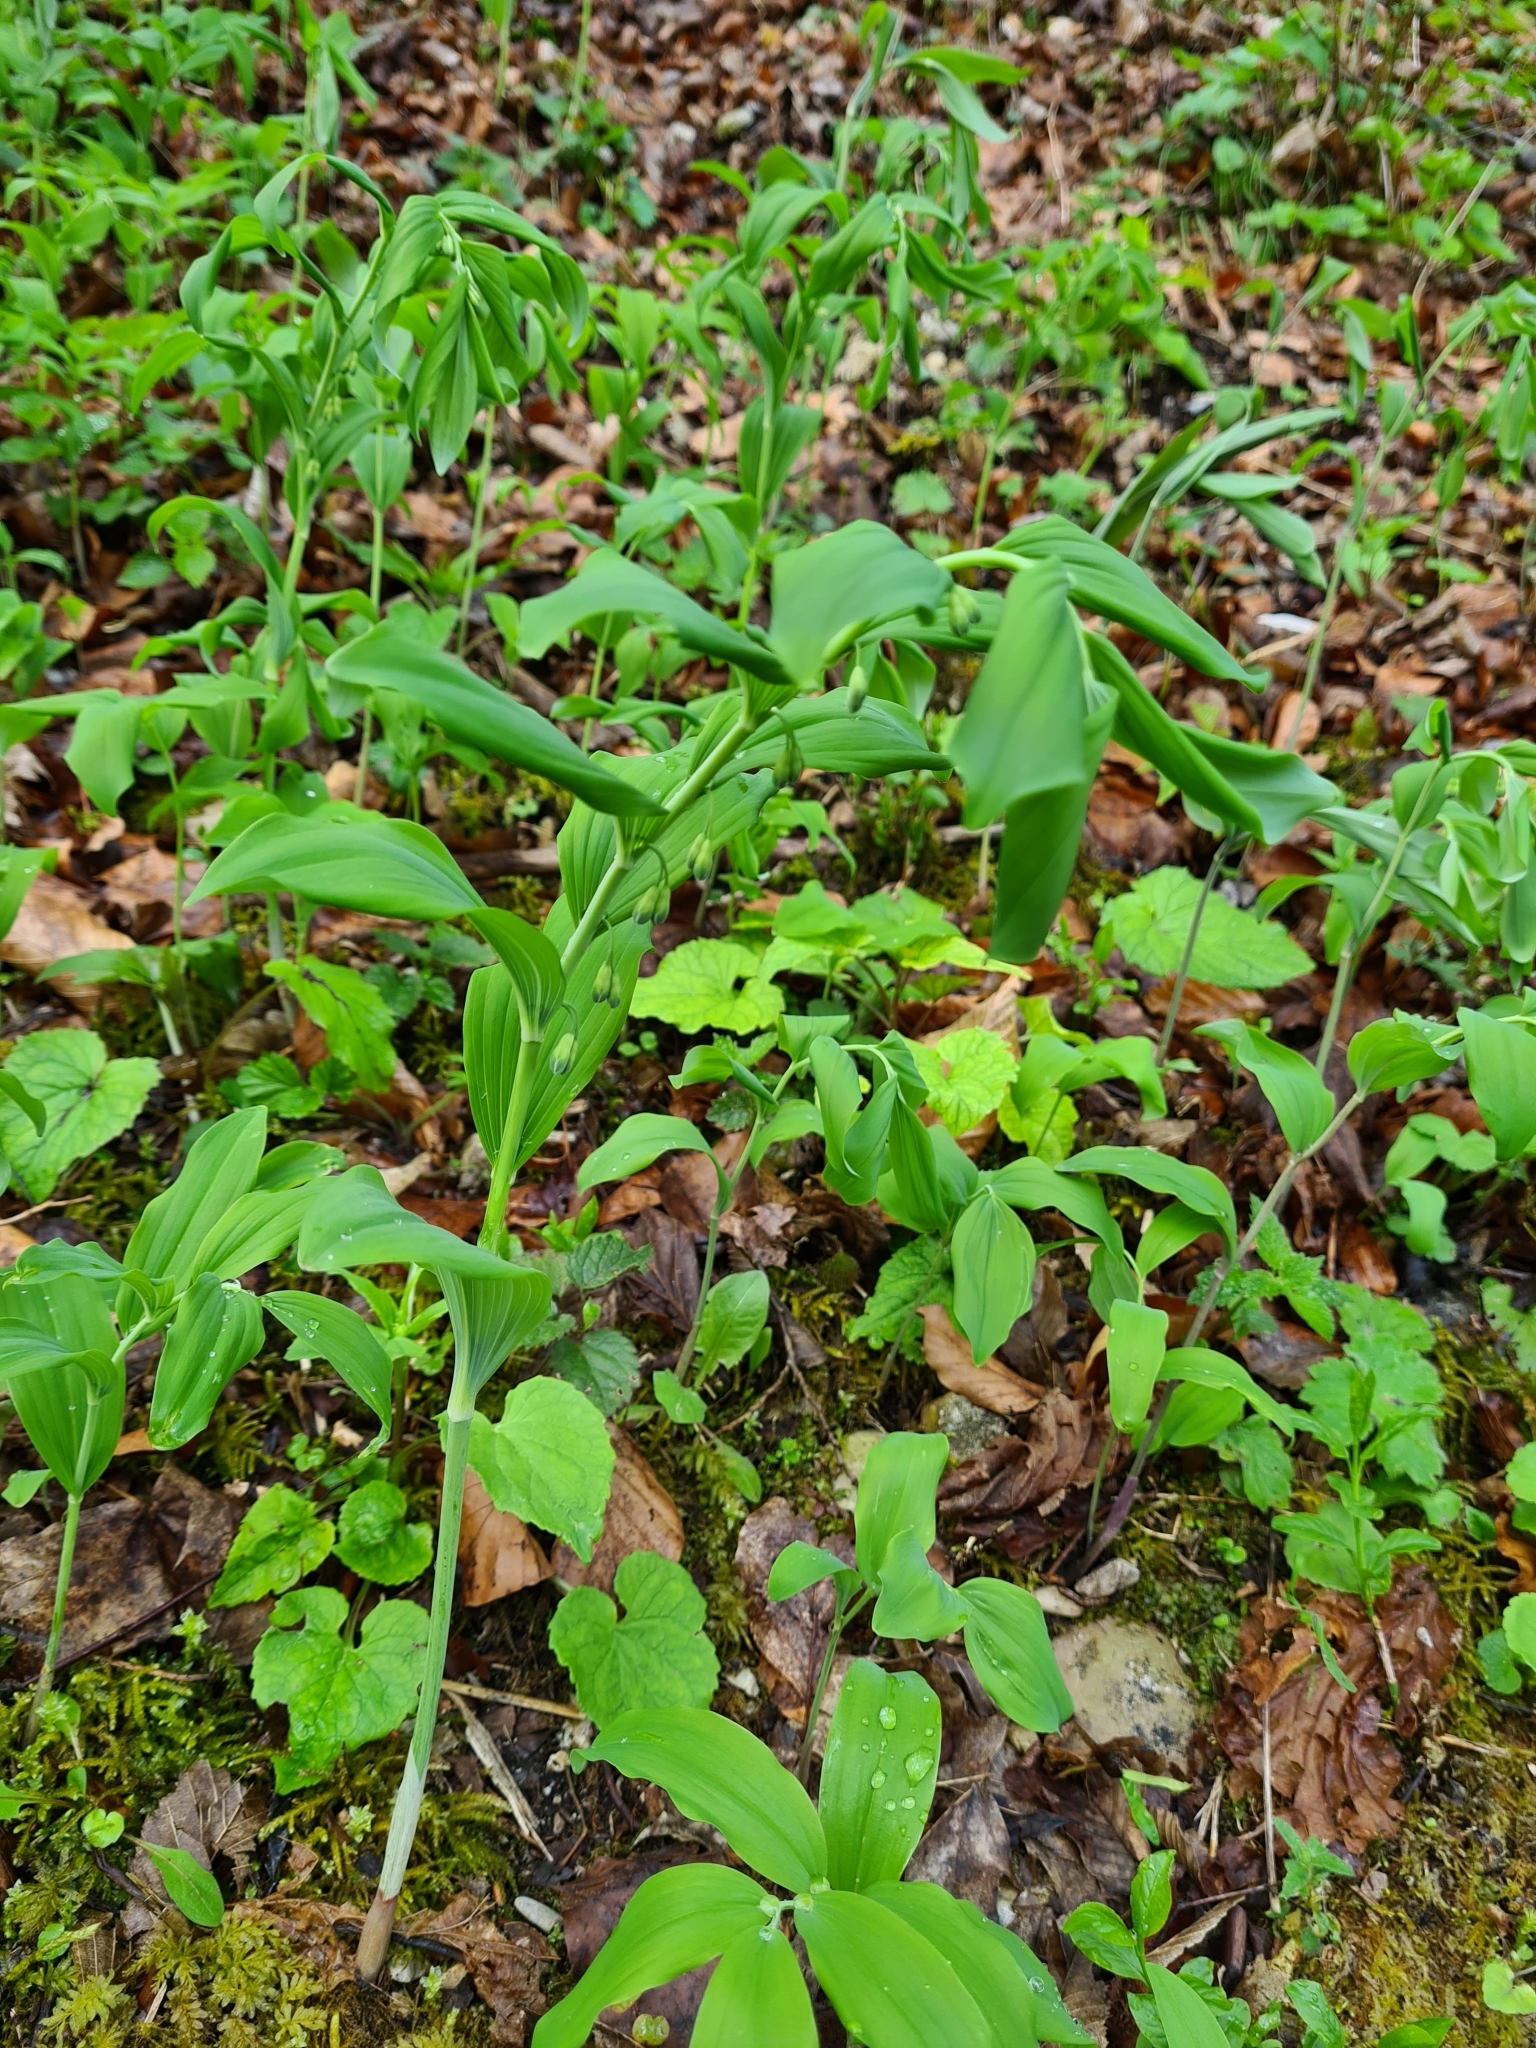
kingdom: Plantae
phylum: Tracheophyta
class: Liliopsida
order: Asparagales
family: Asparagaceae
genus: Polygonatum
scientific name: Polygonatum multiflorum
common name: Solomon's-seal
